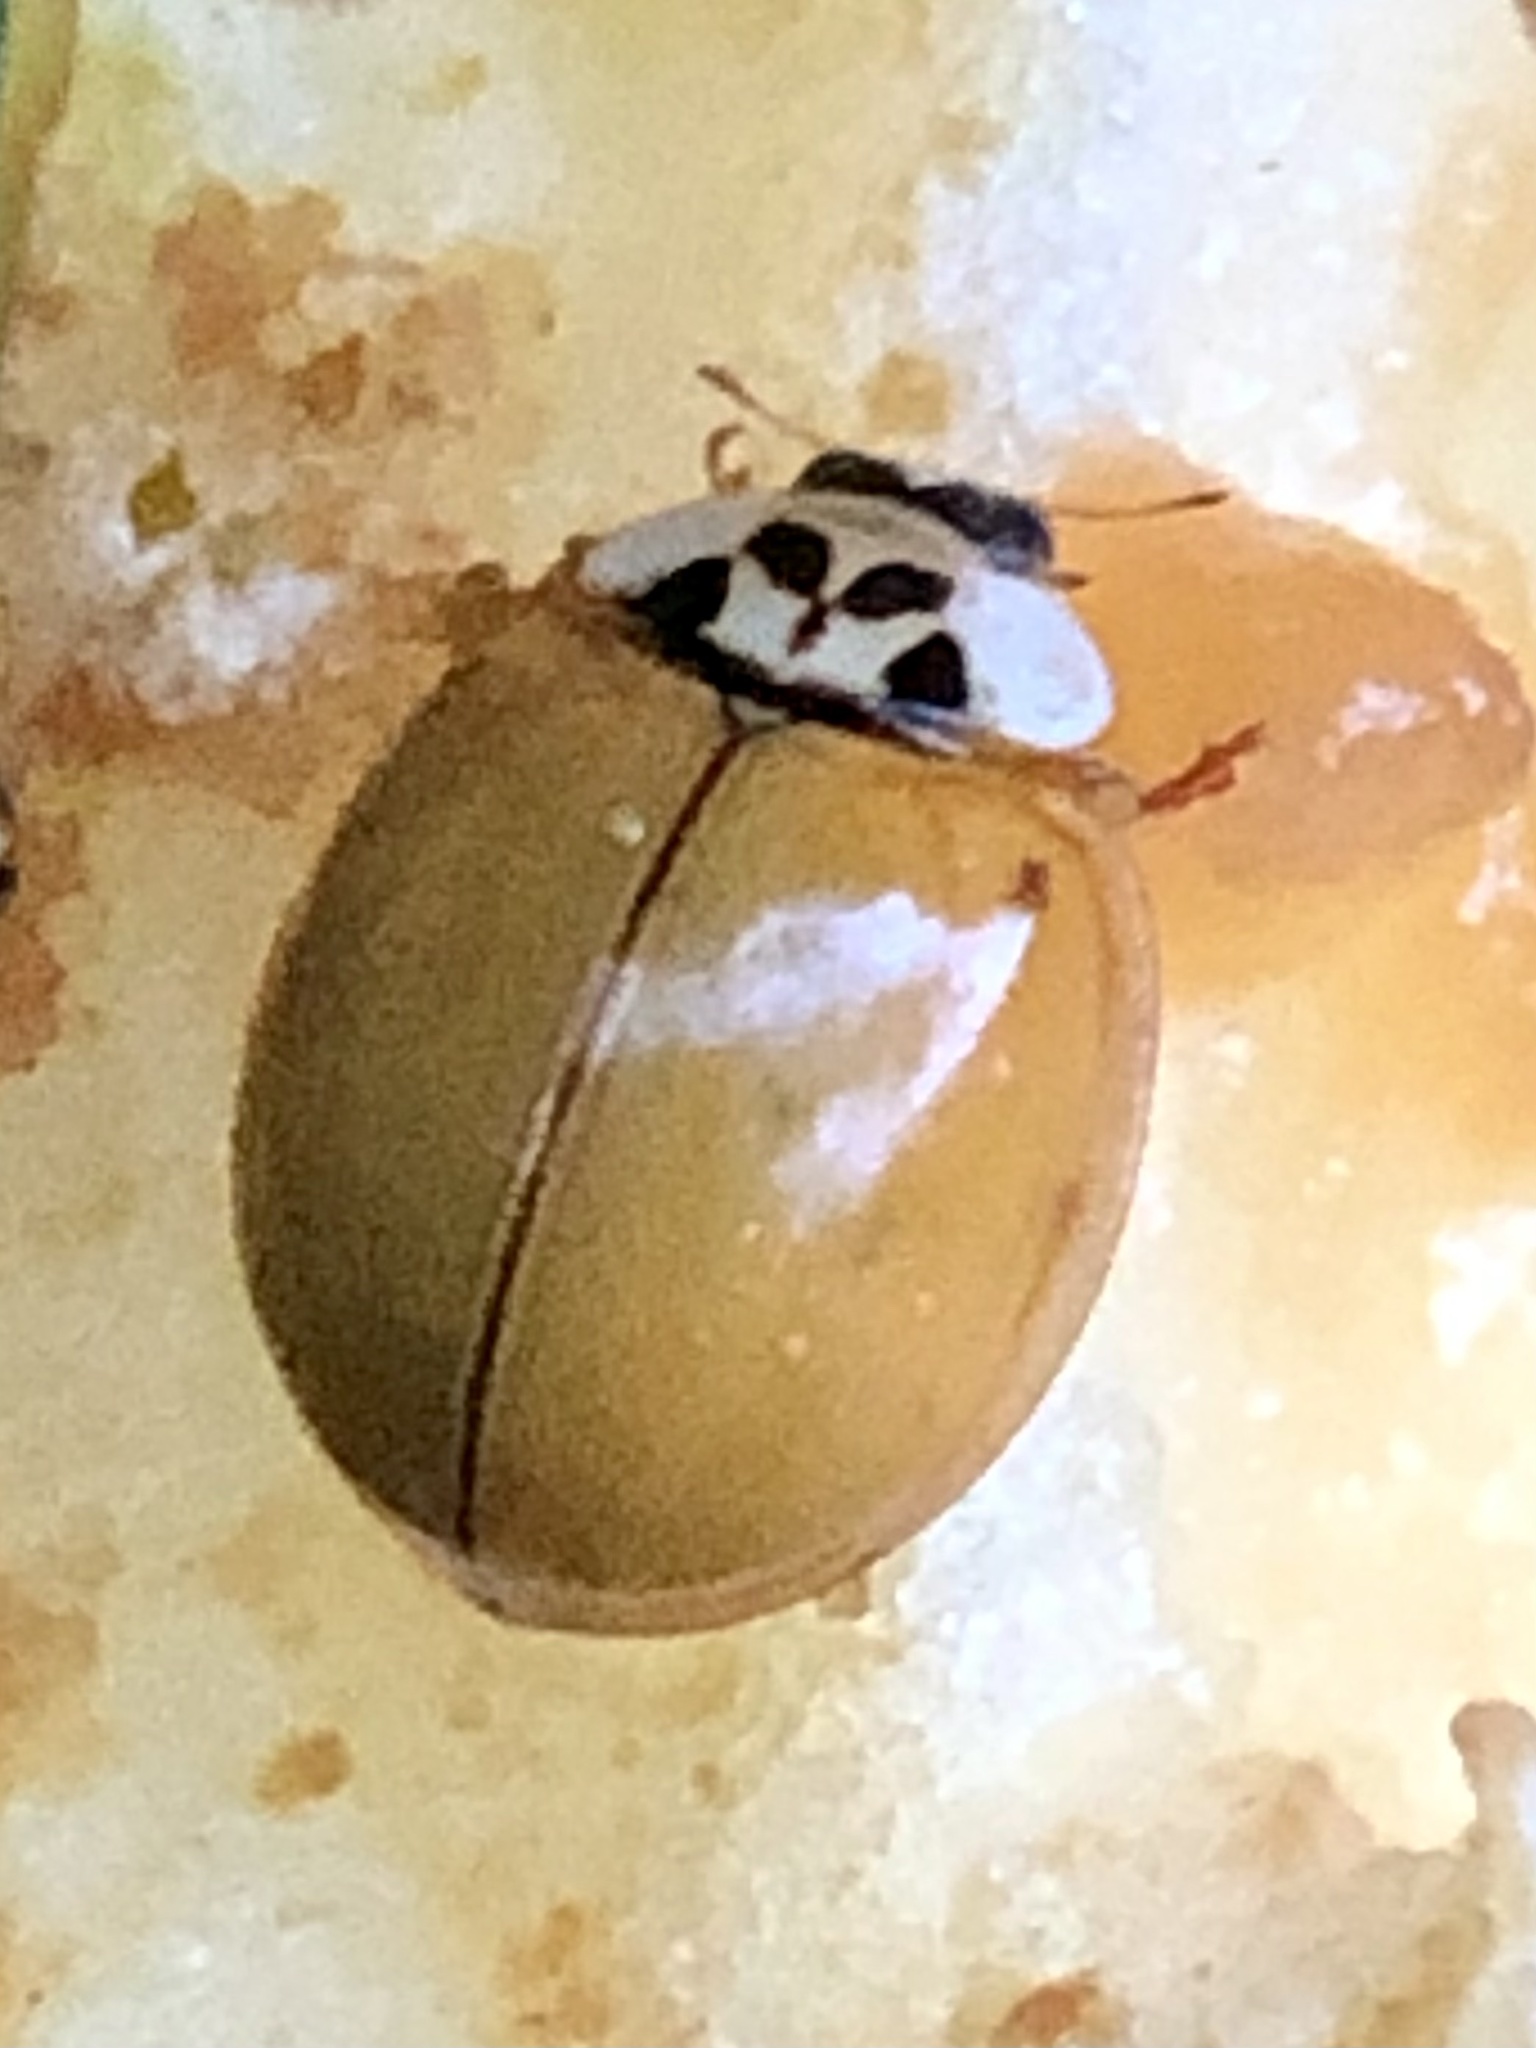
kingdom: Animalia
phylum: Arthropoda
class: Insecta
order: Coleoptera
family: Coccinellidae
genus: Harmonia
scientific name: Harmonia axyridis
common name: Harlequin ladybird
